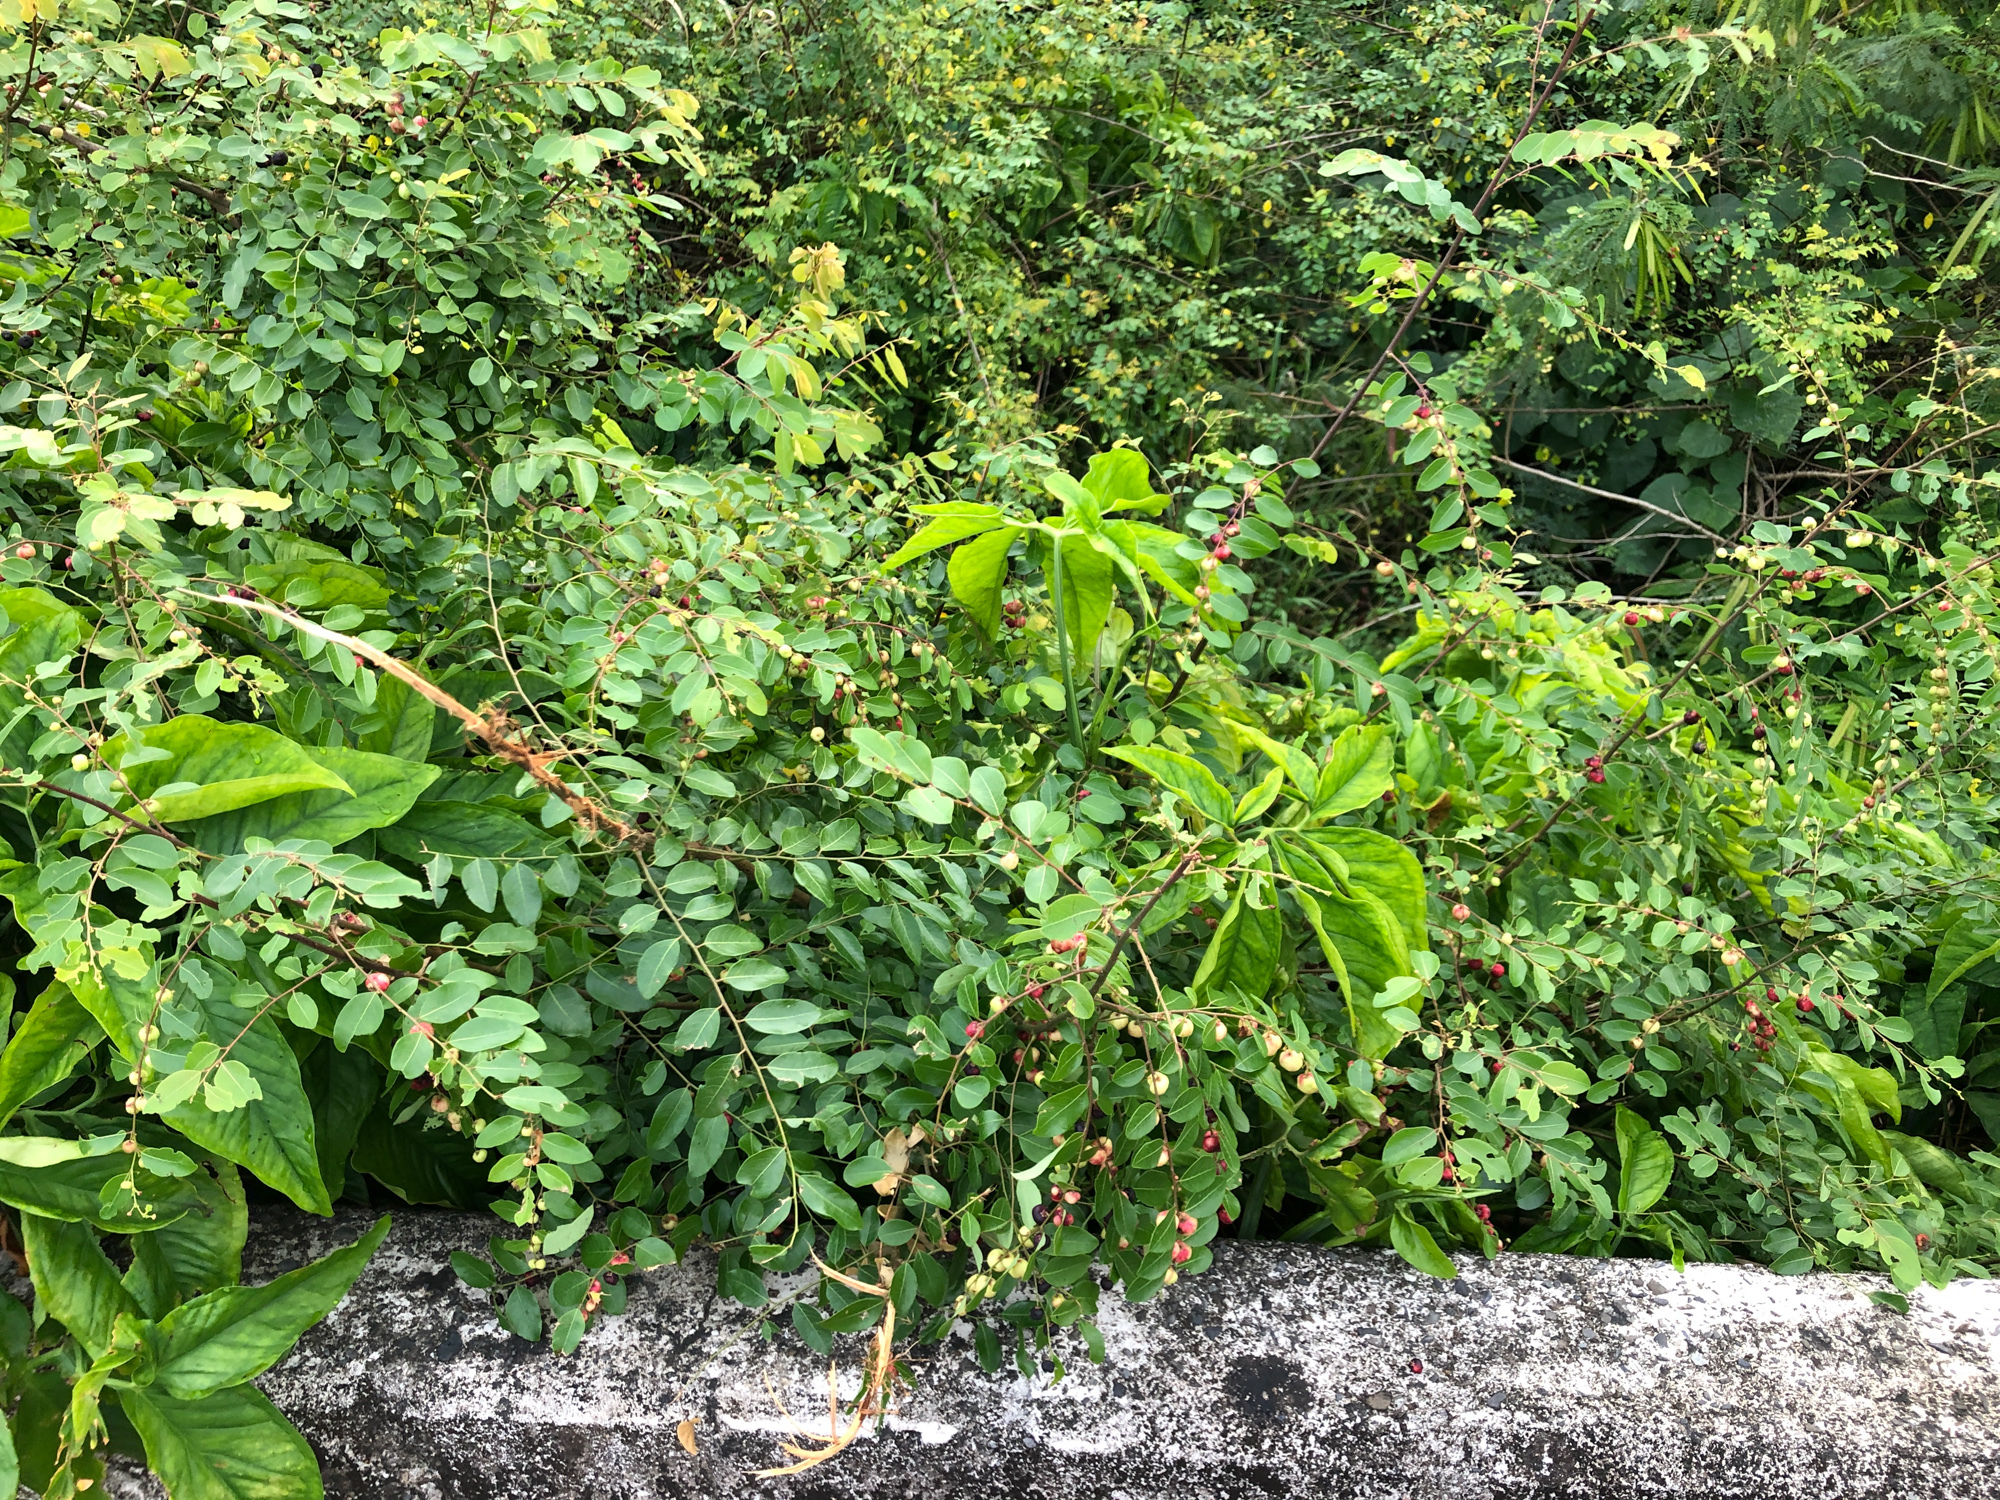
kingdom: Plantae
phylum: Tracheophyta
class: Magnoliopsida
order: Malpighiales
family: Phyllanthaceae
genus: Phyllanthus
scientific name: Phyllanthus reticulatus
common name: Potato bush
